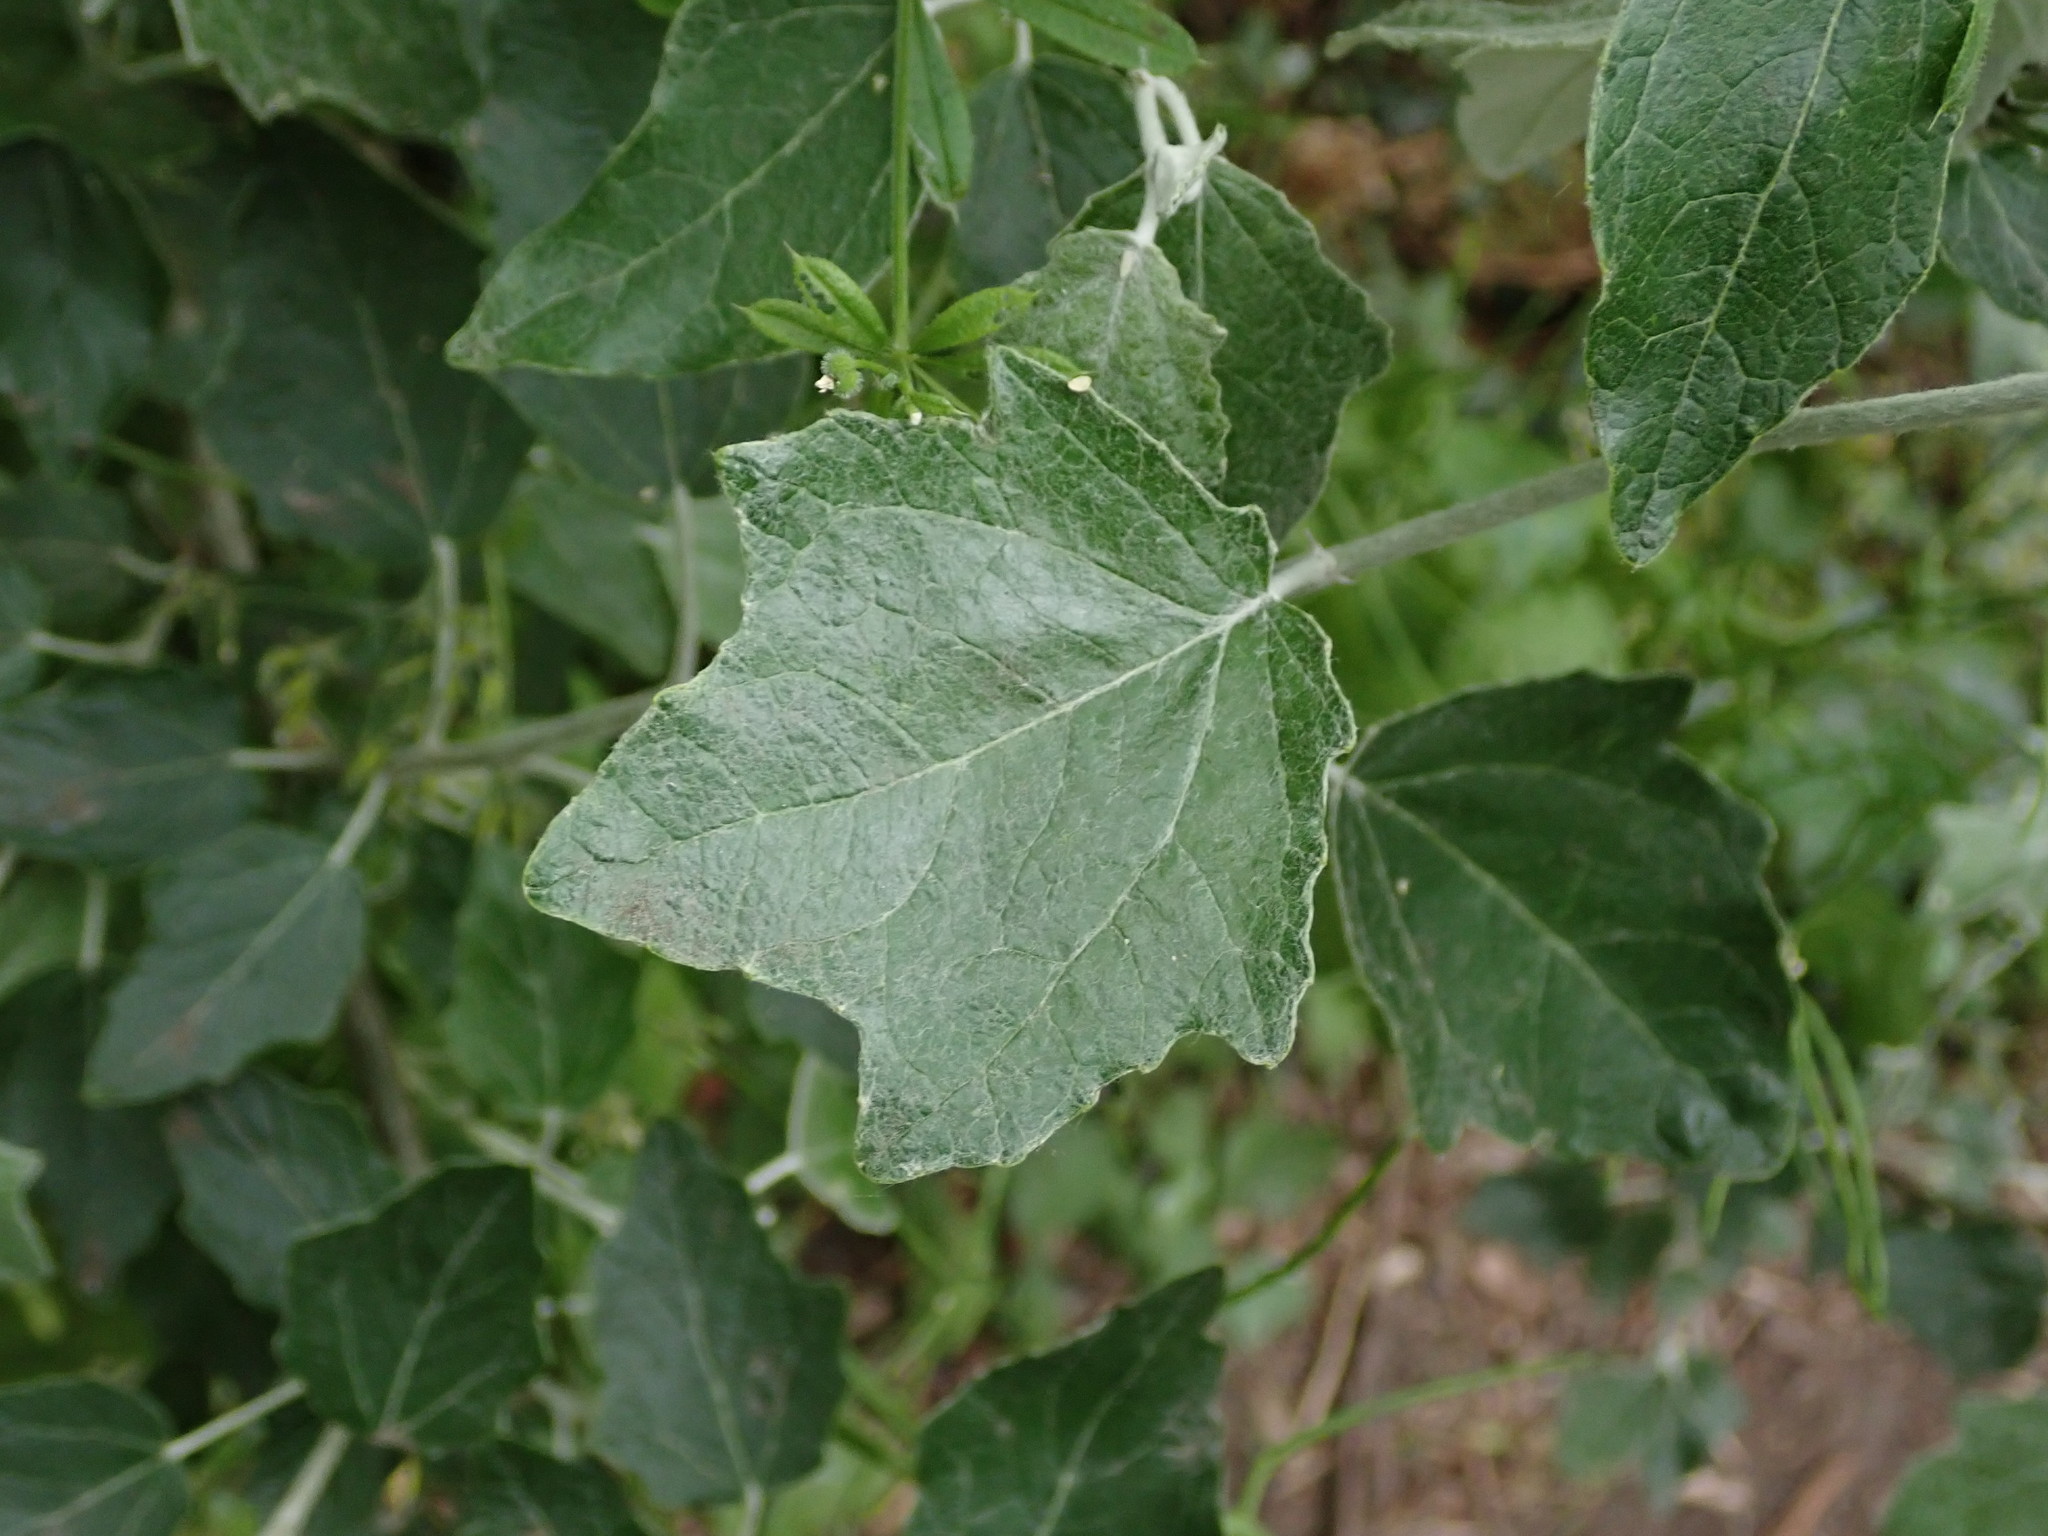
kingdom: Plantae
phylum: Tracheophyta
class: Magnoliopsida
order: Malpighiales
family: Salicaceae
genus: Populus
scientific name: Populus alba
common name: White poplar
